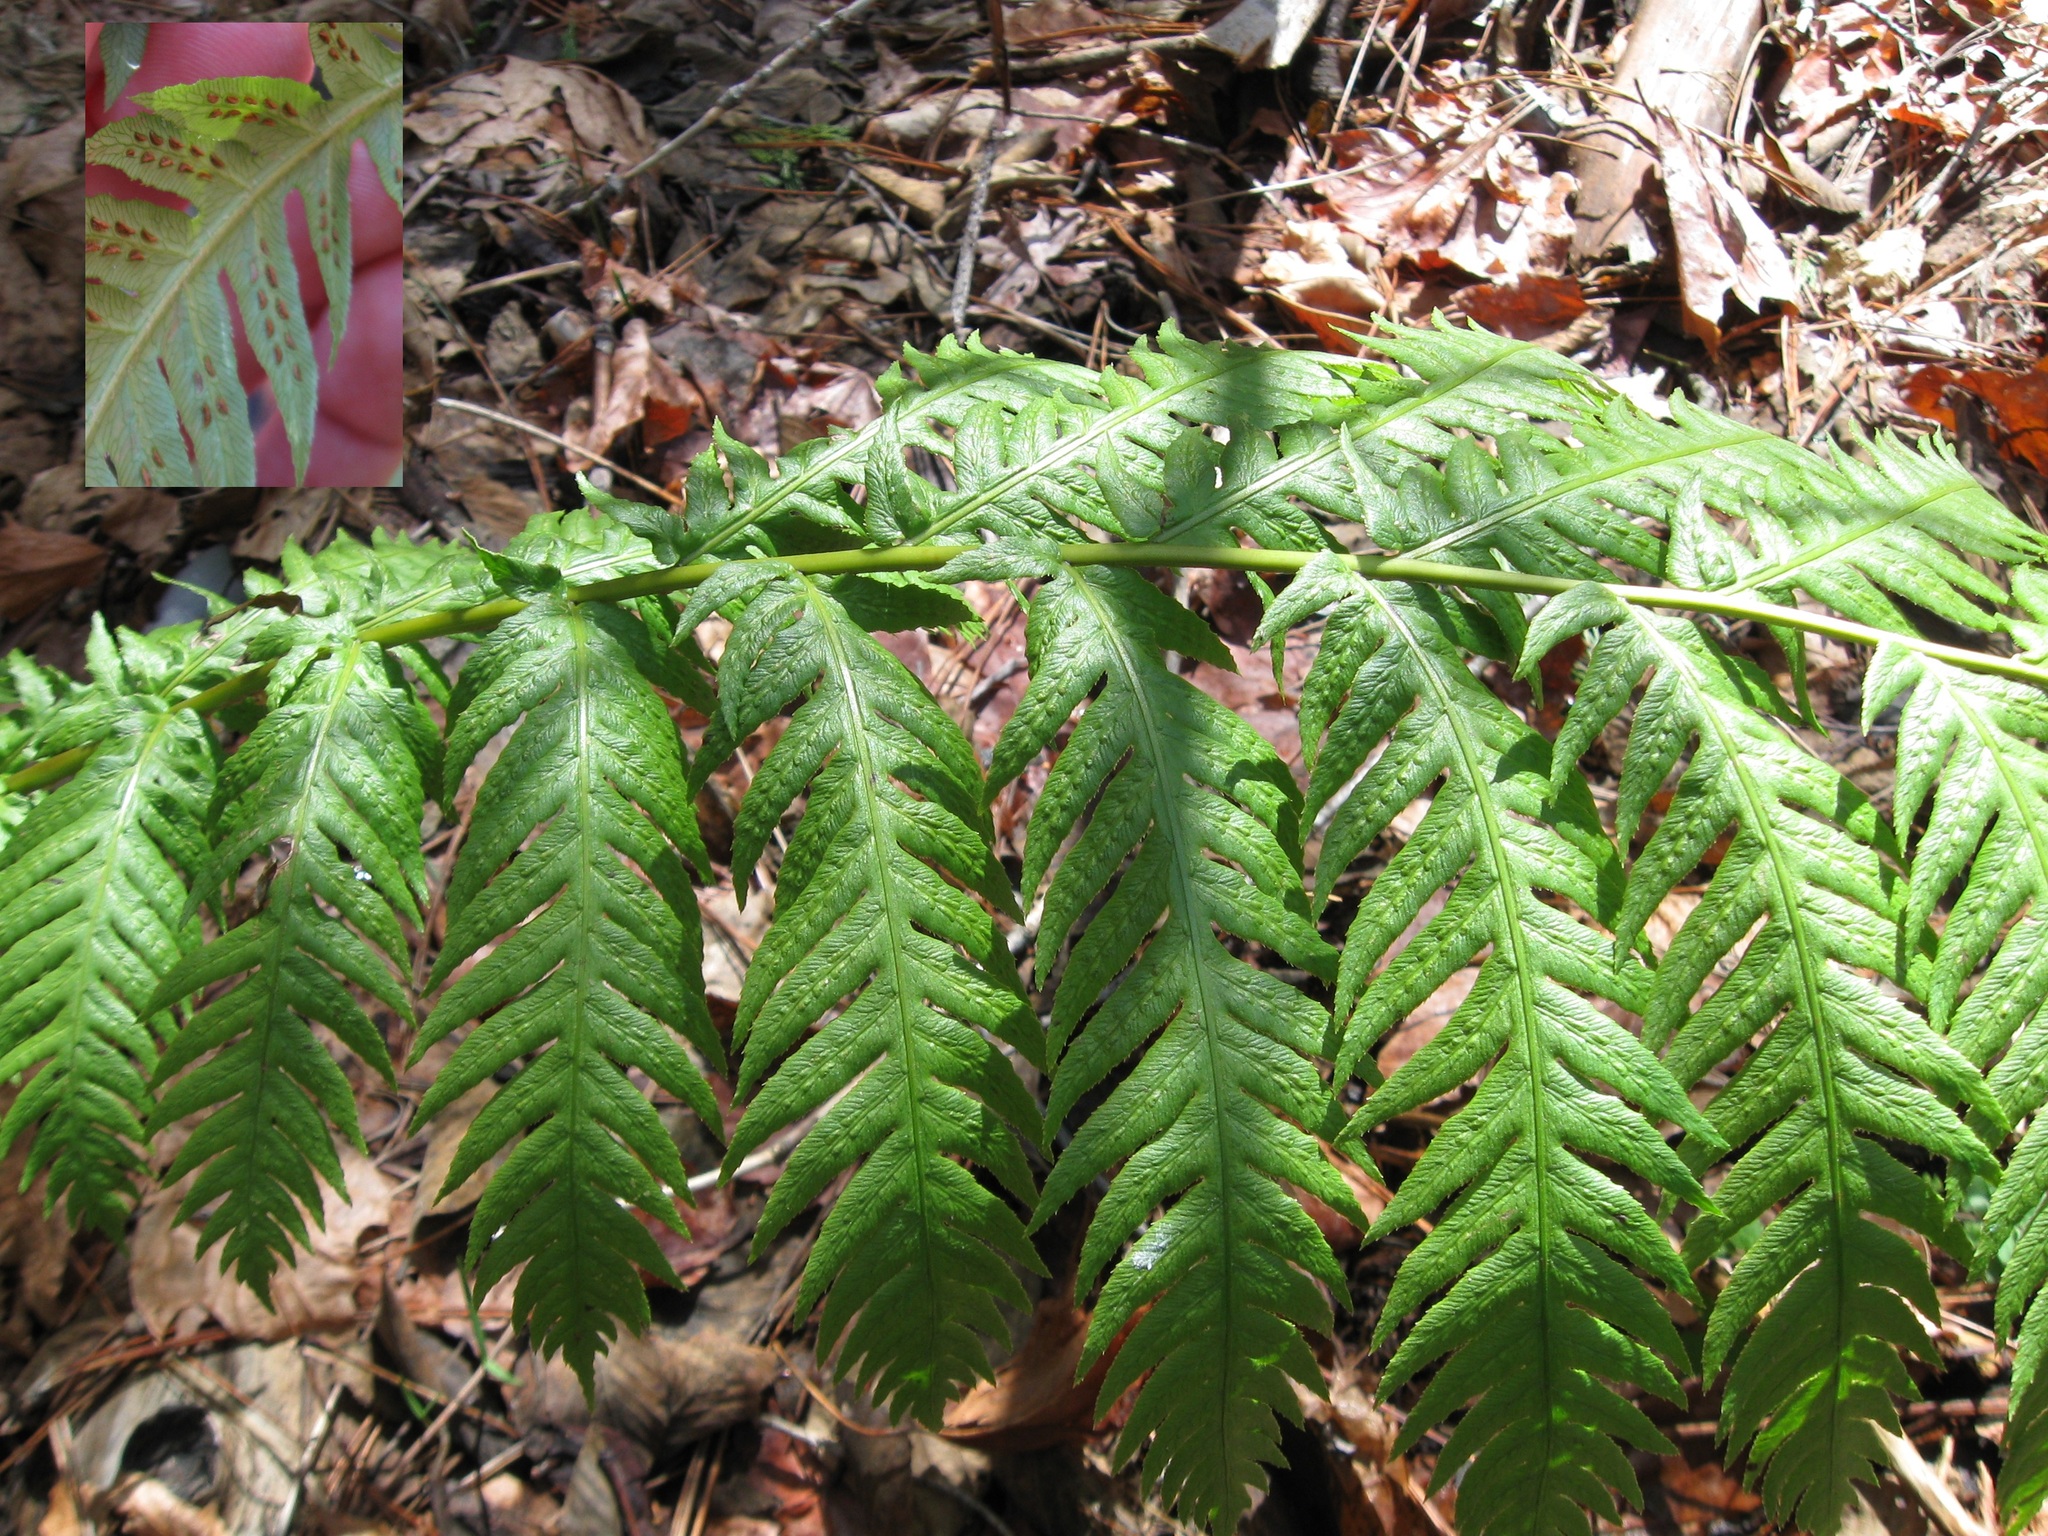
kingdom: Plantae
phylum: Tracheophyta
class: Polypodiopsida
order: Polypodiales
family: Blechnaceae
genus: Woodwardia
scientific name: Woodwardia fimbriata
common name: Giant chain fern
